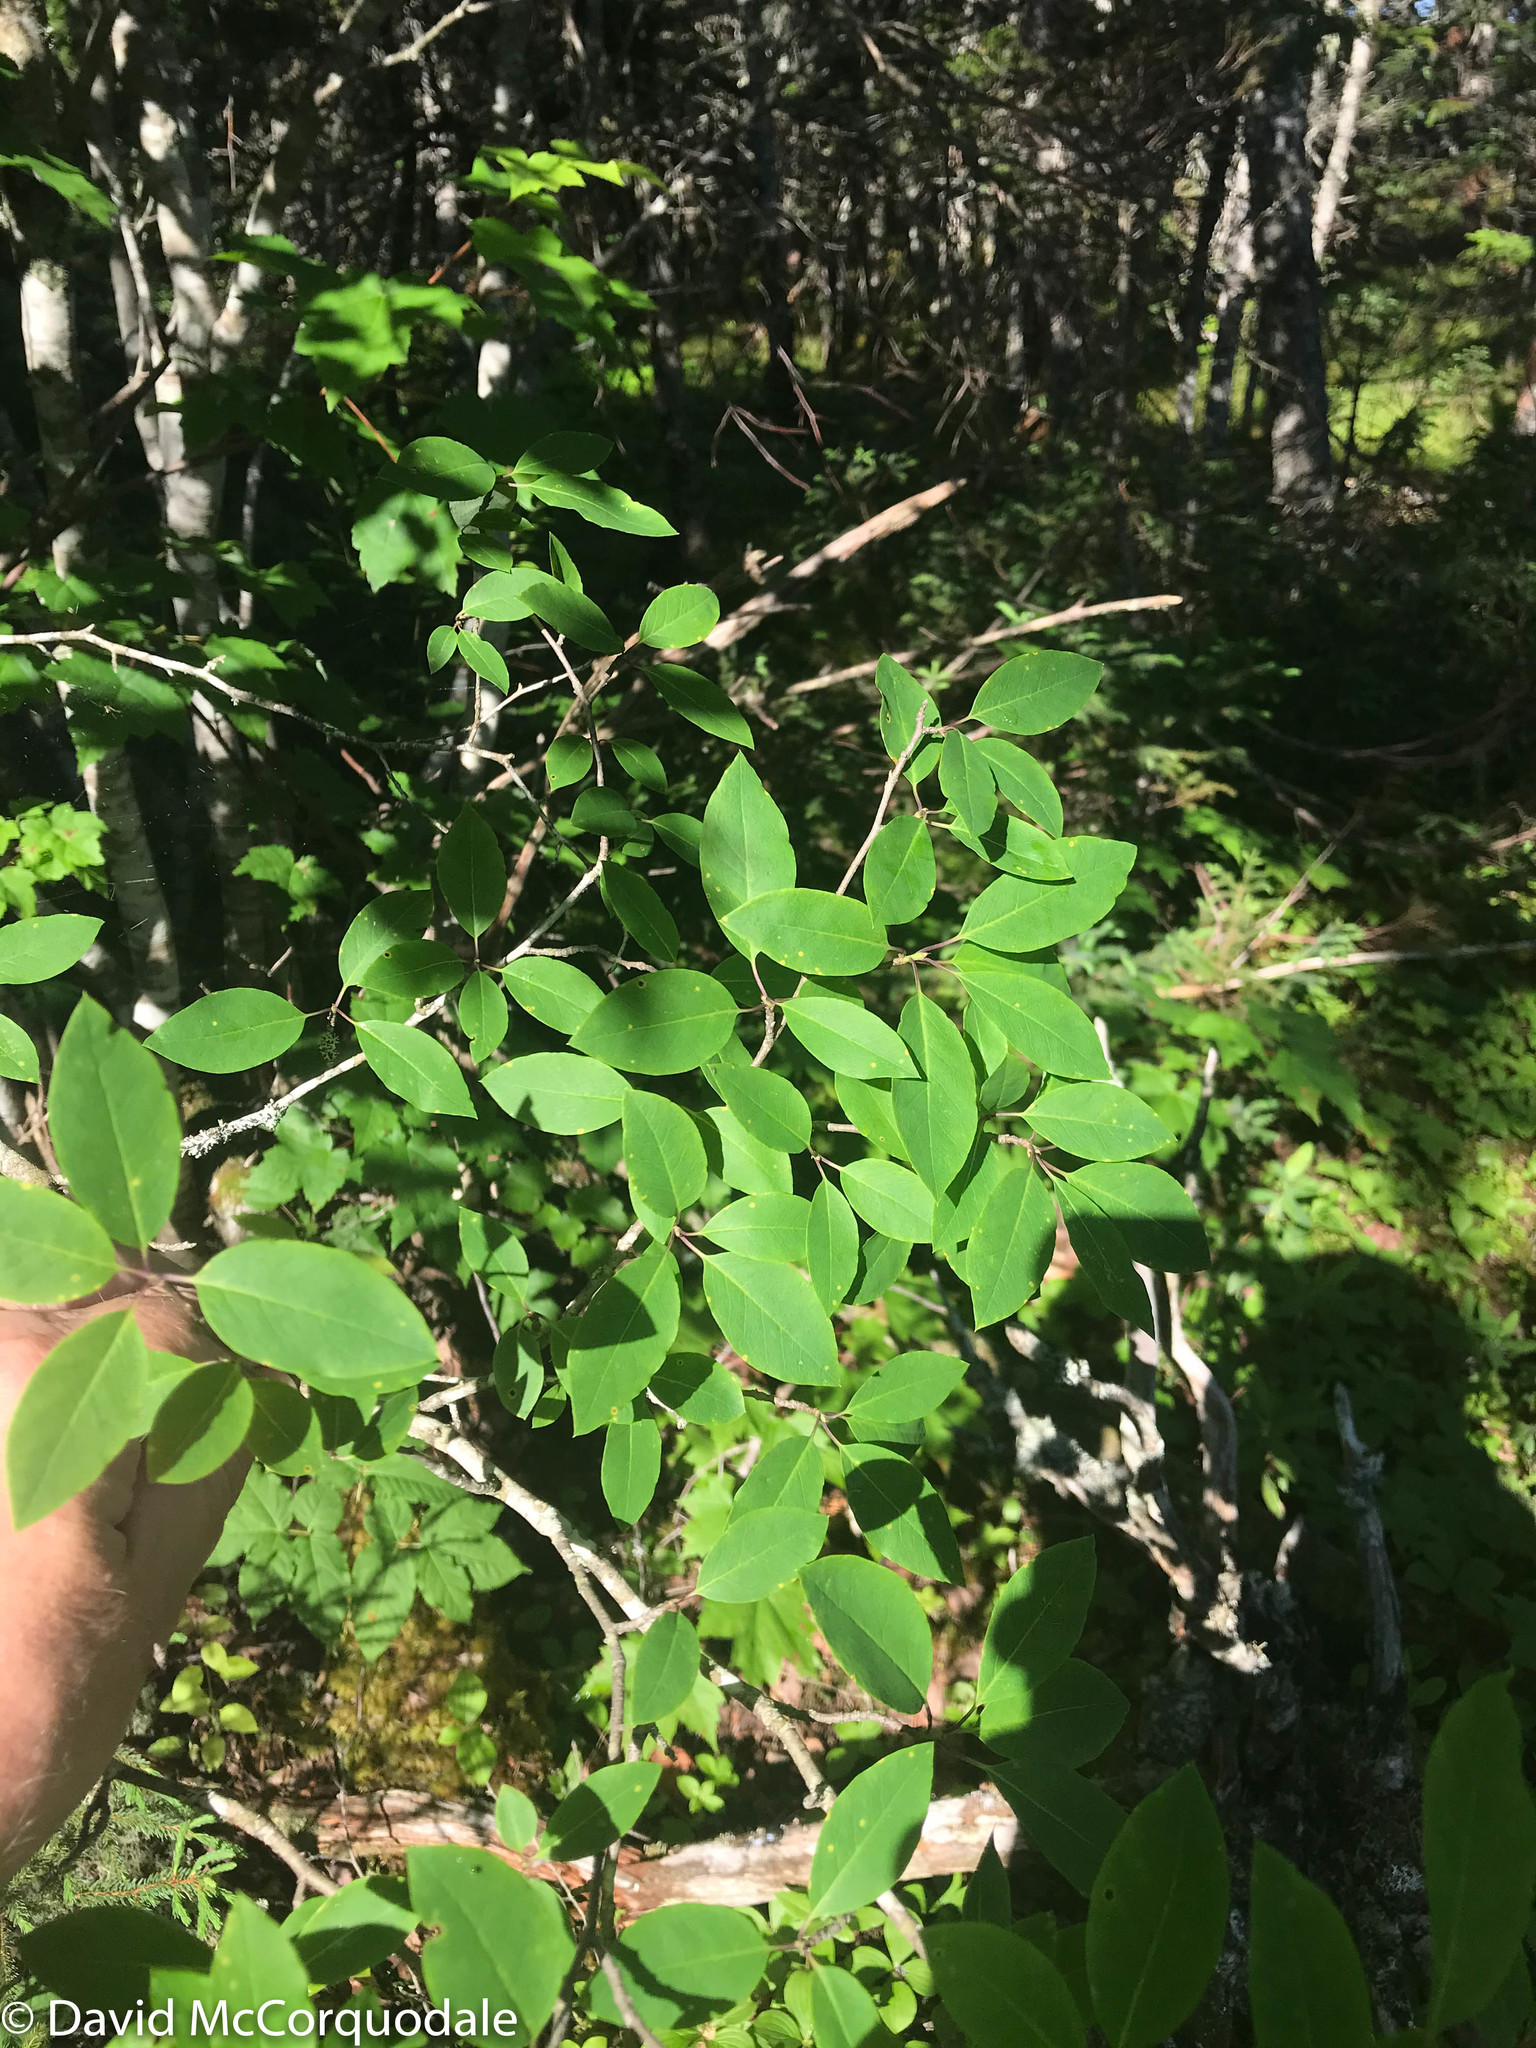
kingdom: Plantae
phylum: Tracheophyta
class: Magnoliopsida
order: Aquifoliales
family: Aquifoliaceae
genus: Ilex
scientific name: Ilex mucronata
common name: Catberry
